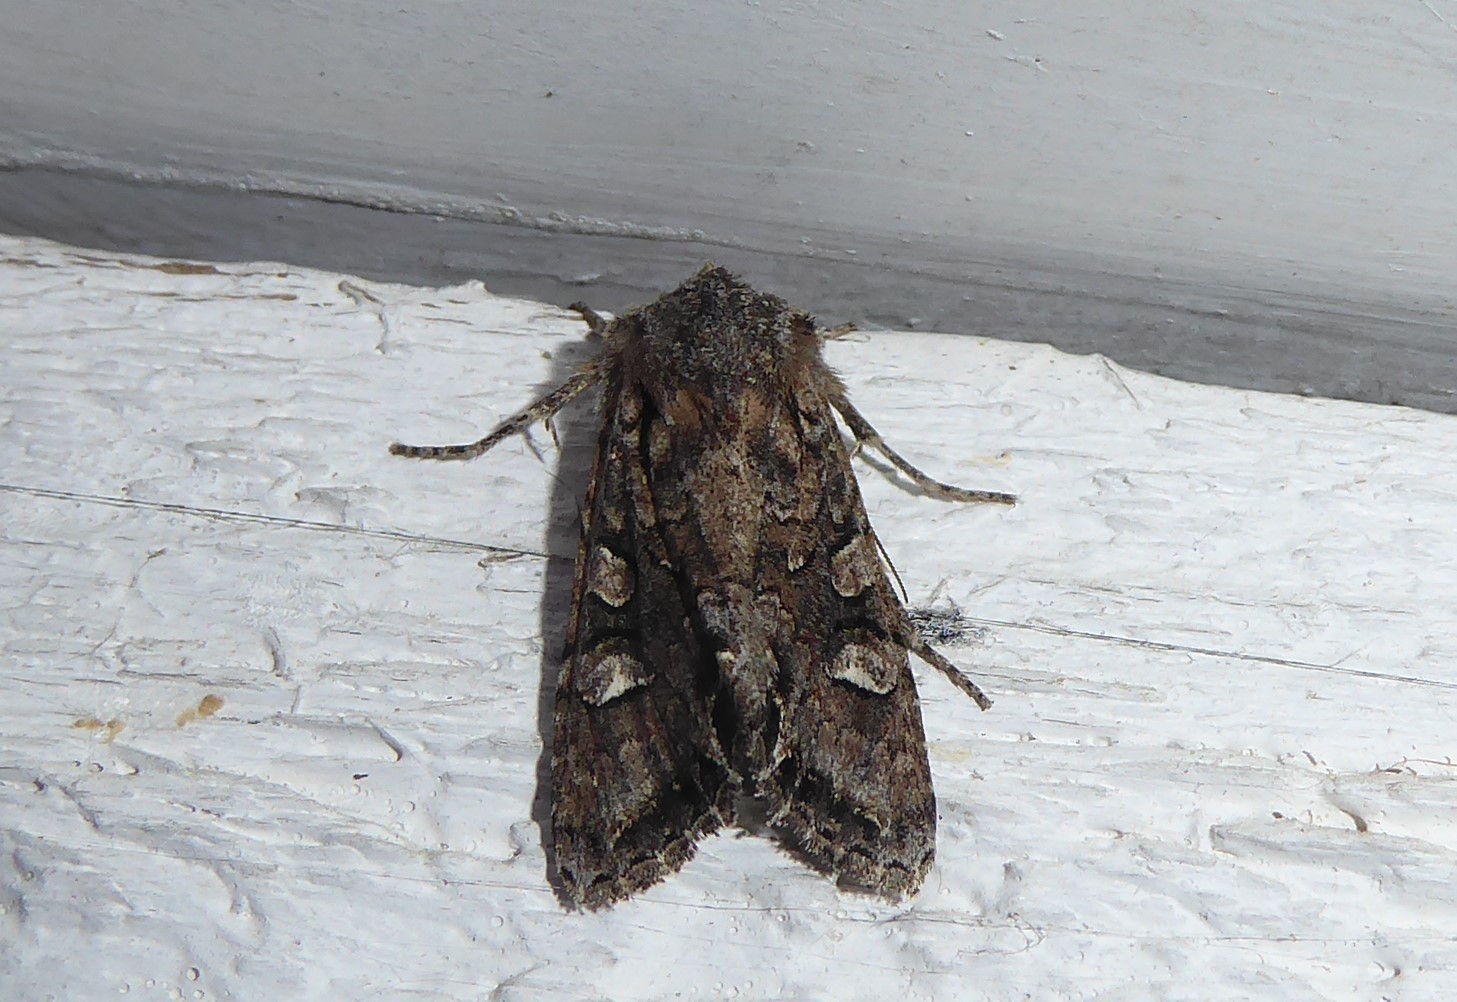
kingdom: Animalia
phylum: Arthropoda
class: Insecta
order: Lepidoptera
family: Noctuidae
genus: Ichneutica
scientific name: Ichneutica mutans
